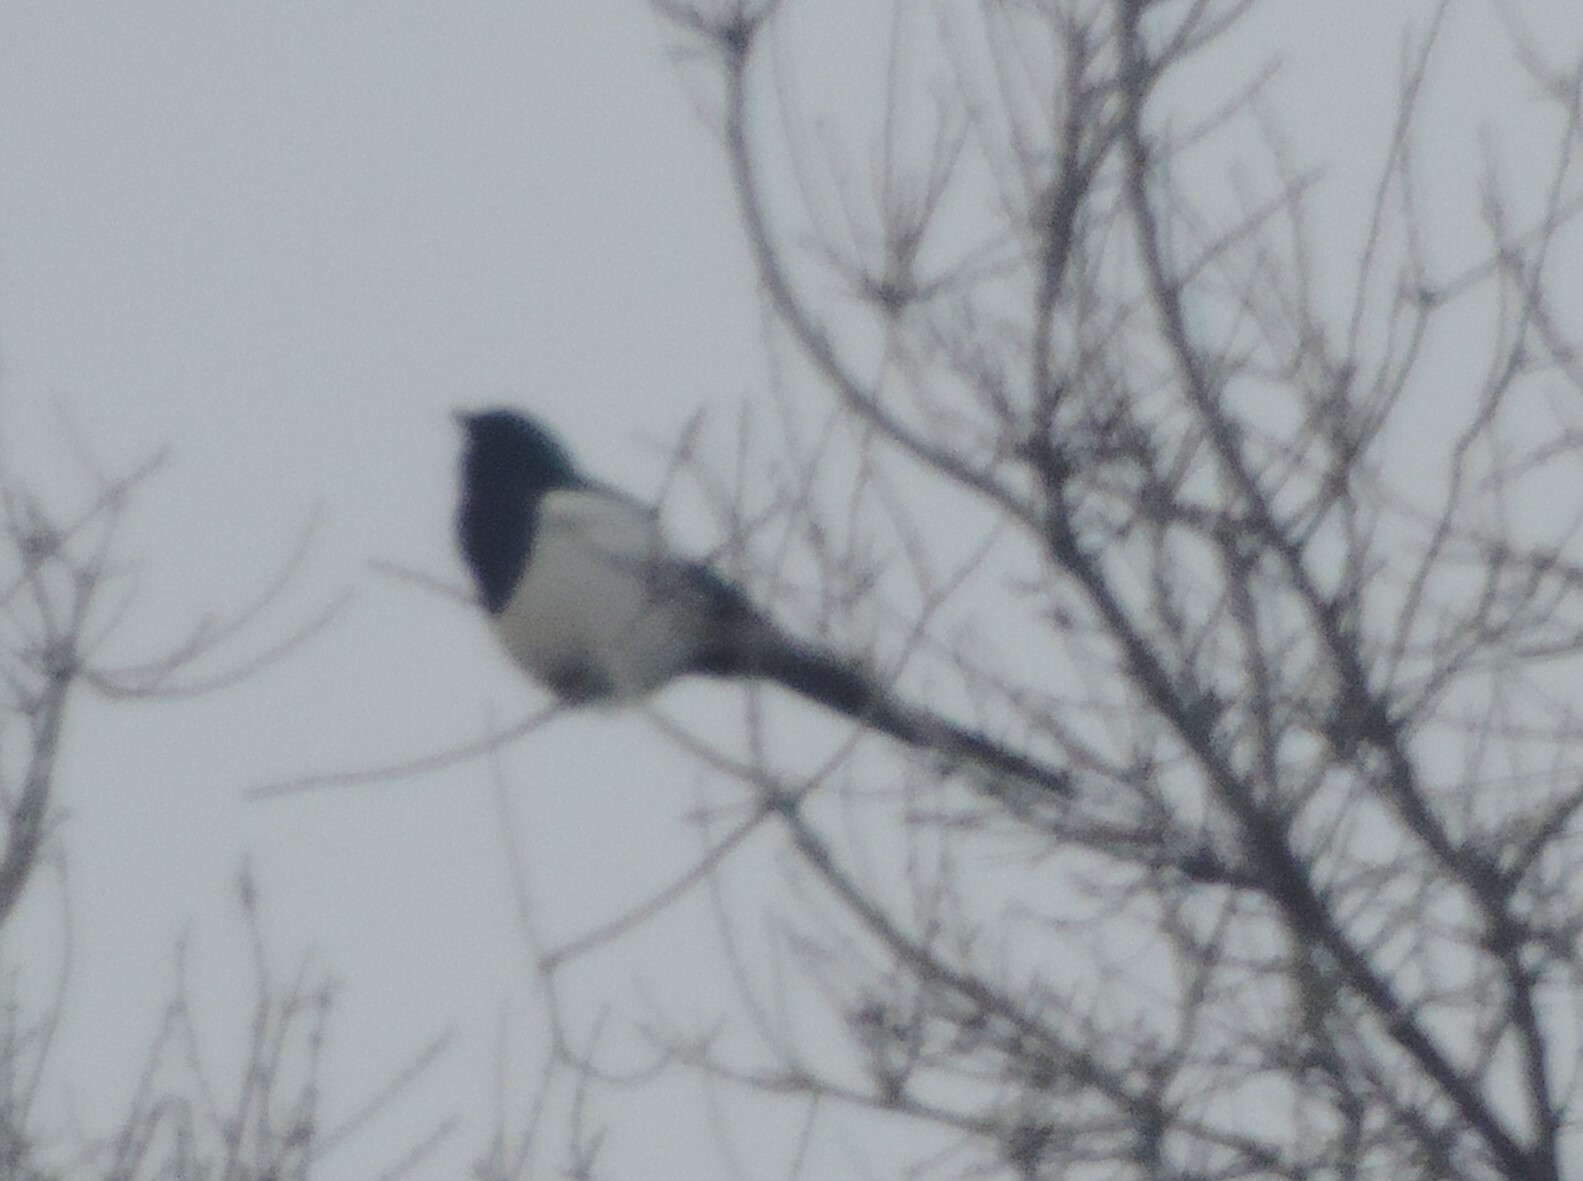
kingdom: Animalia
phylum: Chordata
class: Aves
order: Passeriformes
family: Corvidae
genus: Pica
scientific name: Pica hudsonia
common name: Black-billed magpie
